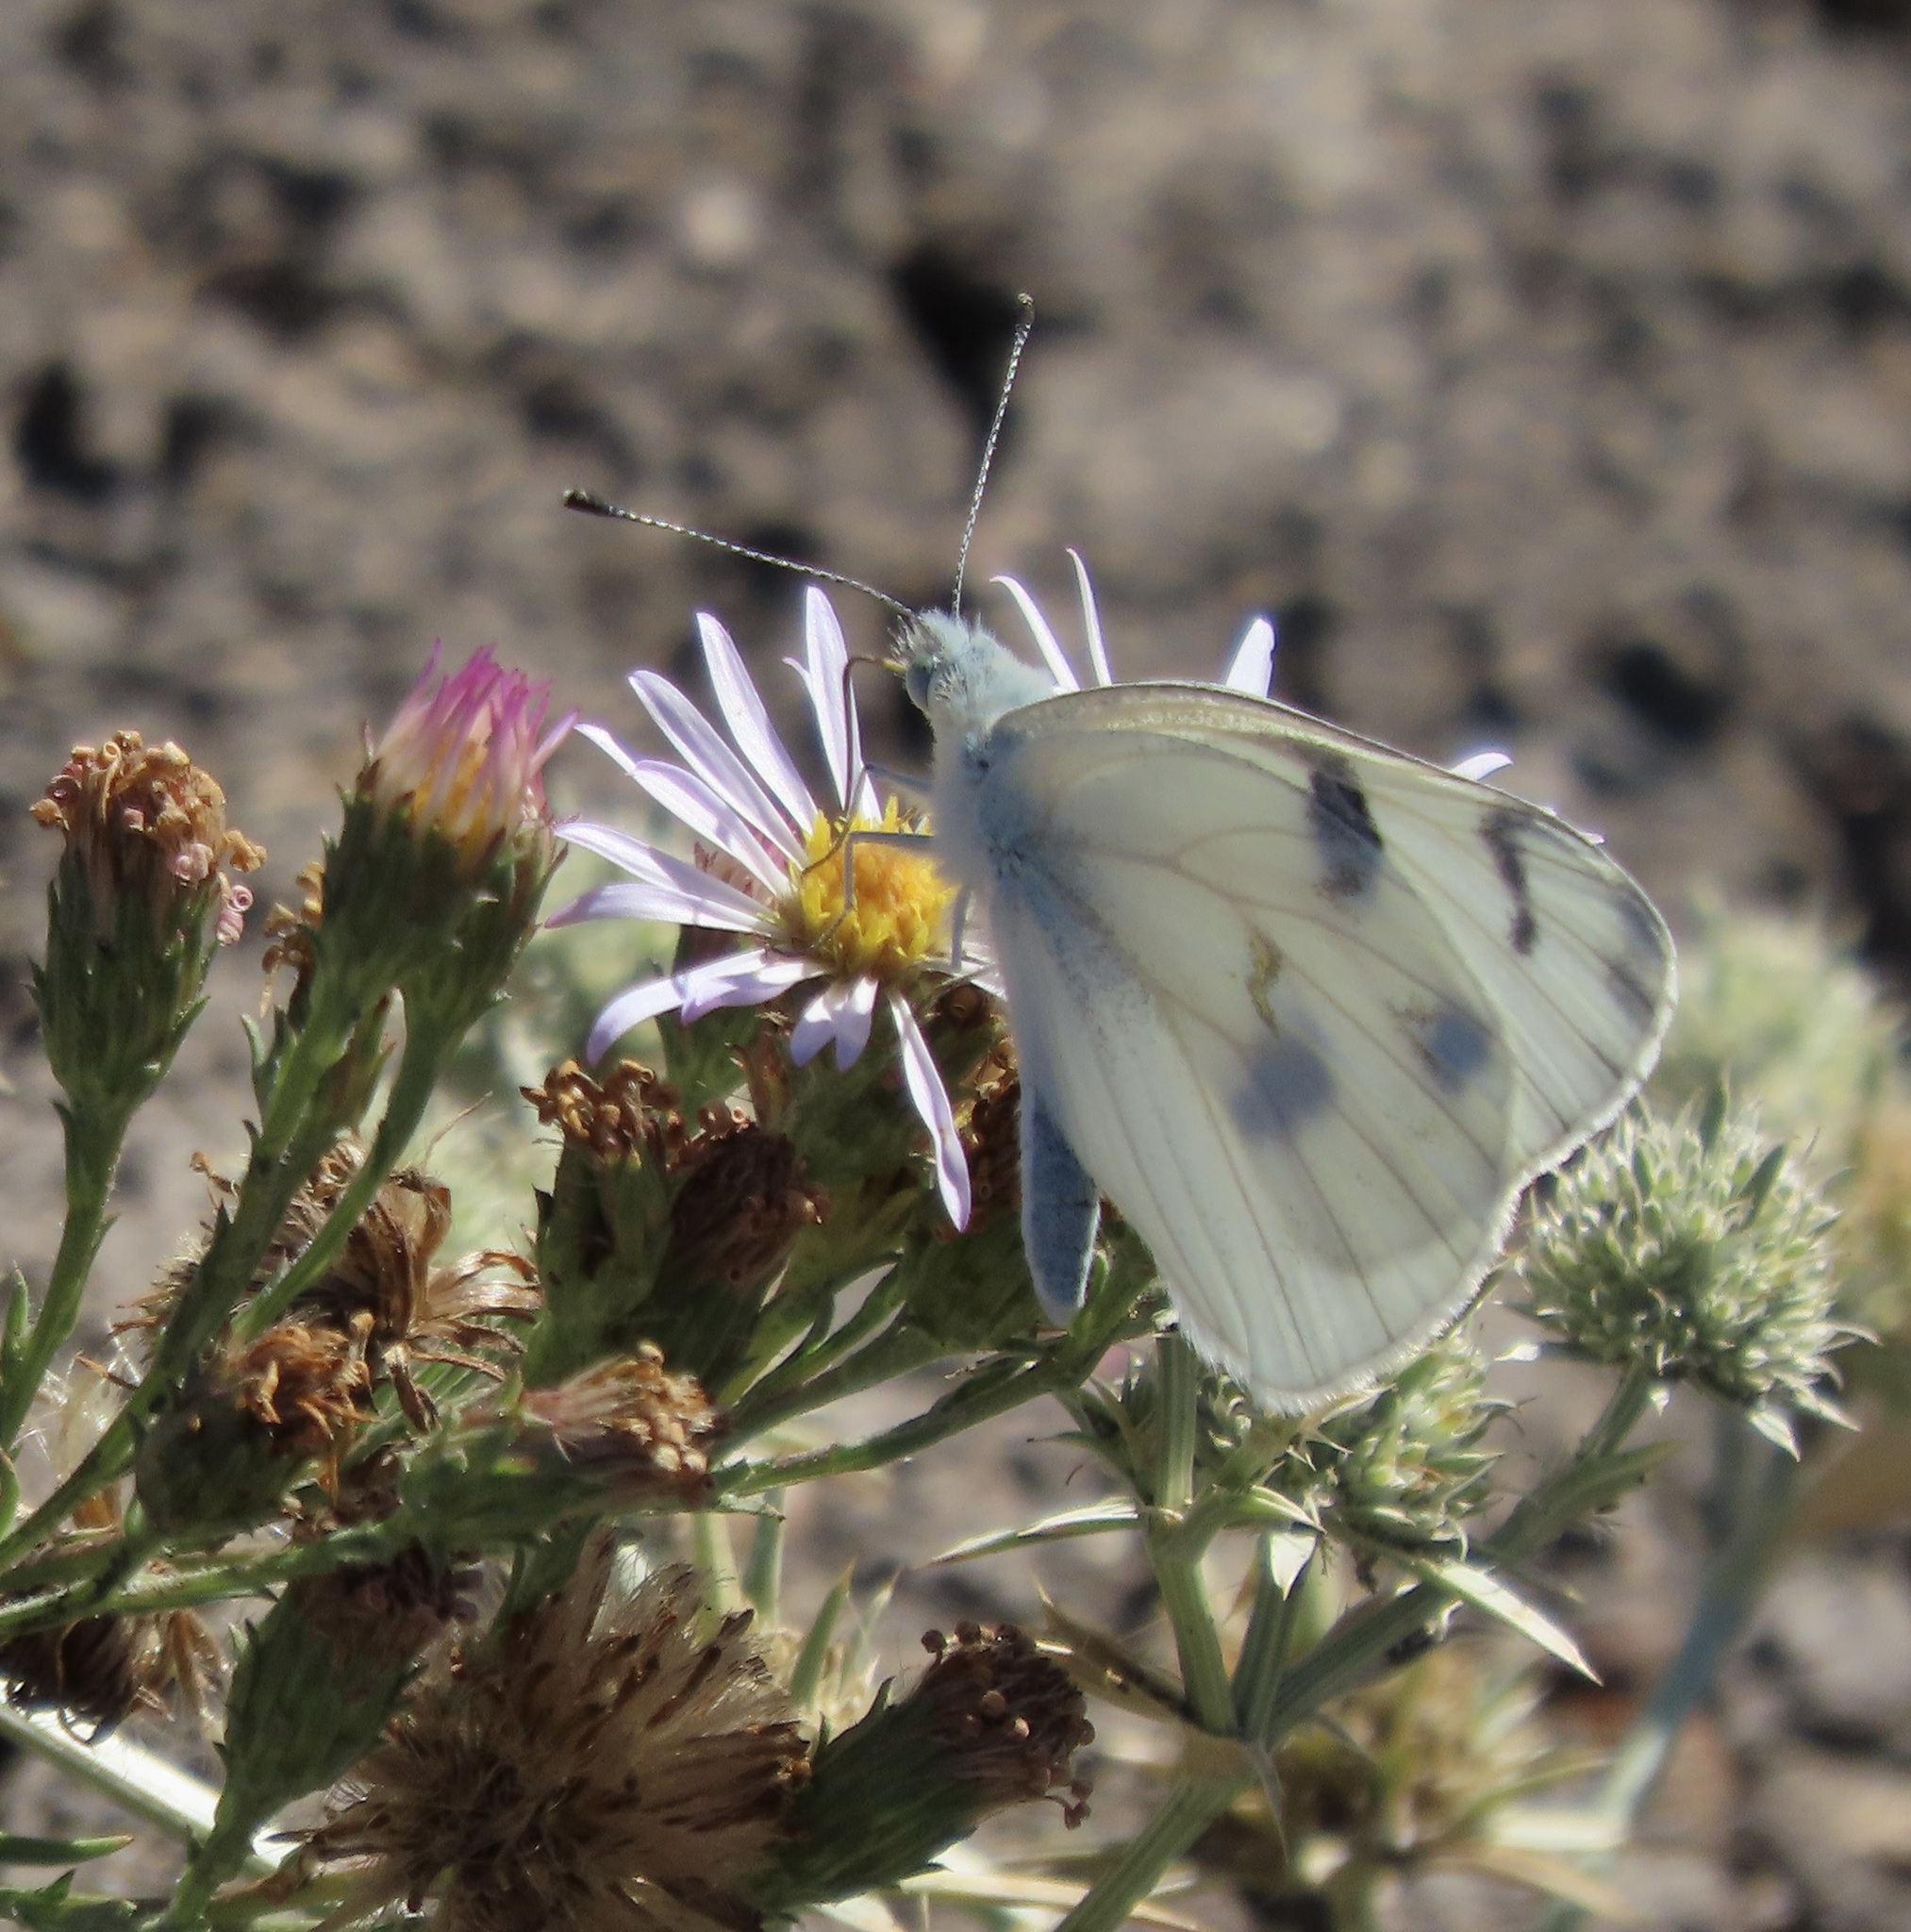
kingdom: Animalia
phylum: Arthropoda
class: Insecta
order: Lepidoptera
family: Pieridae
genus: Pontia
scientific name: Pontia protodice
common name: Checkered white
